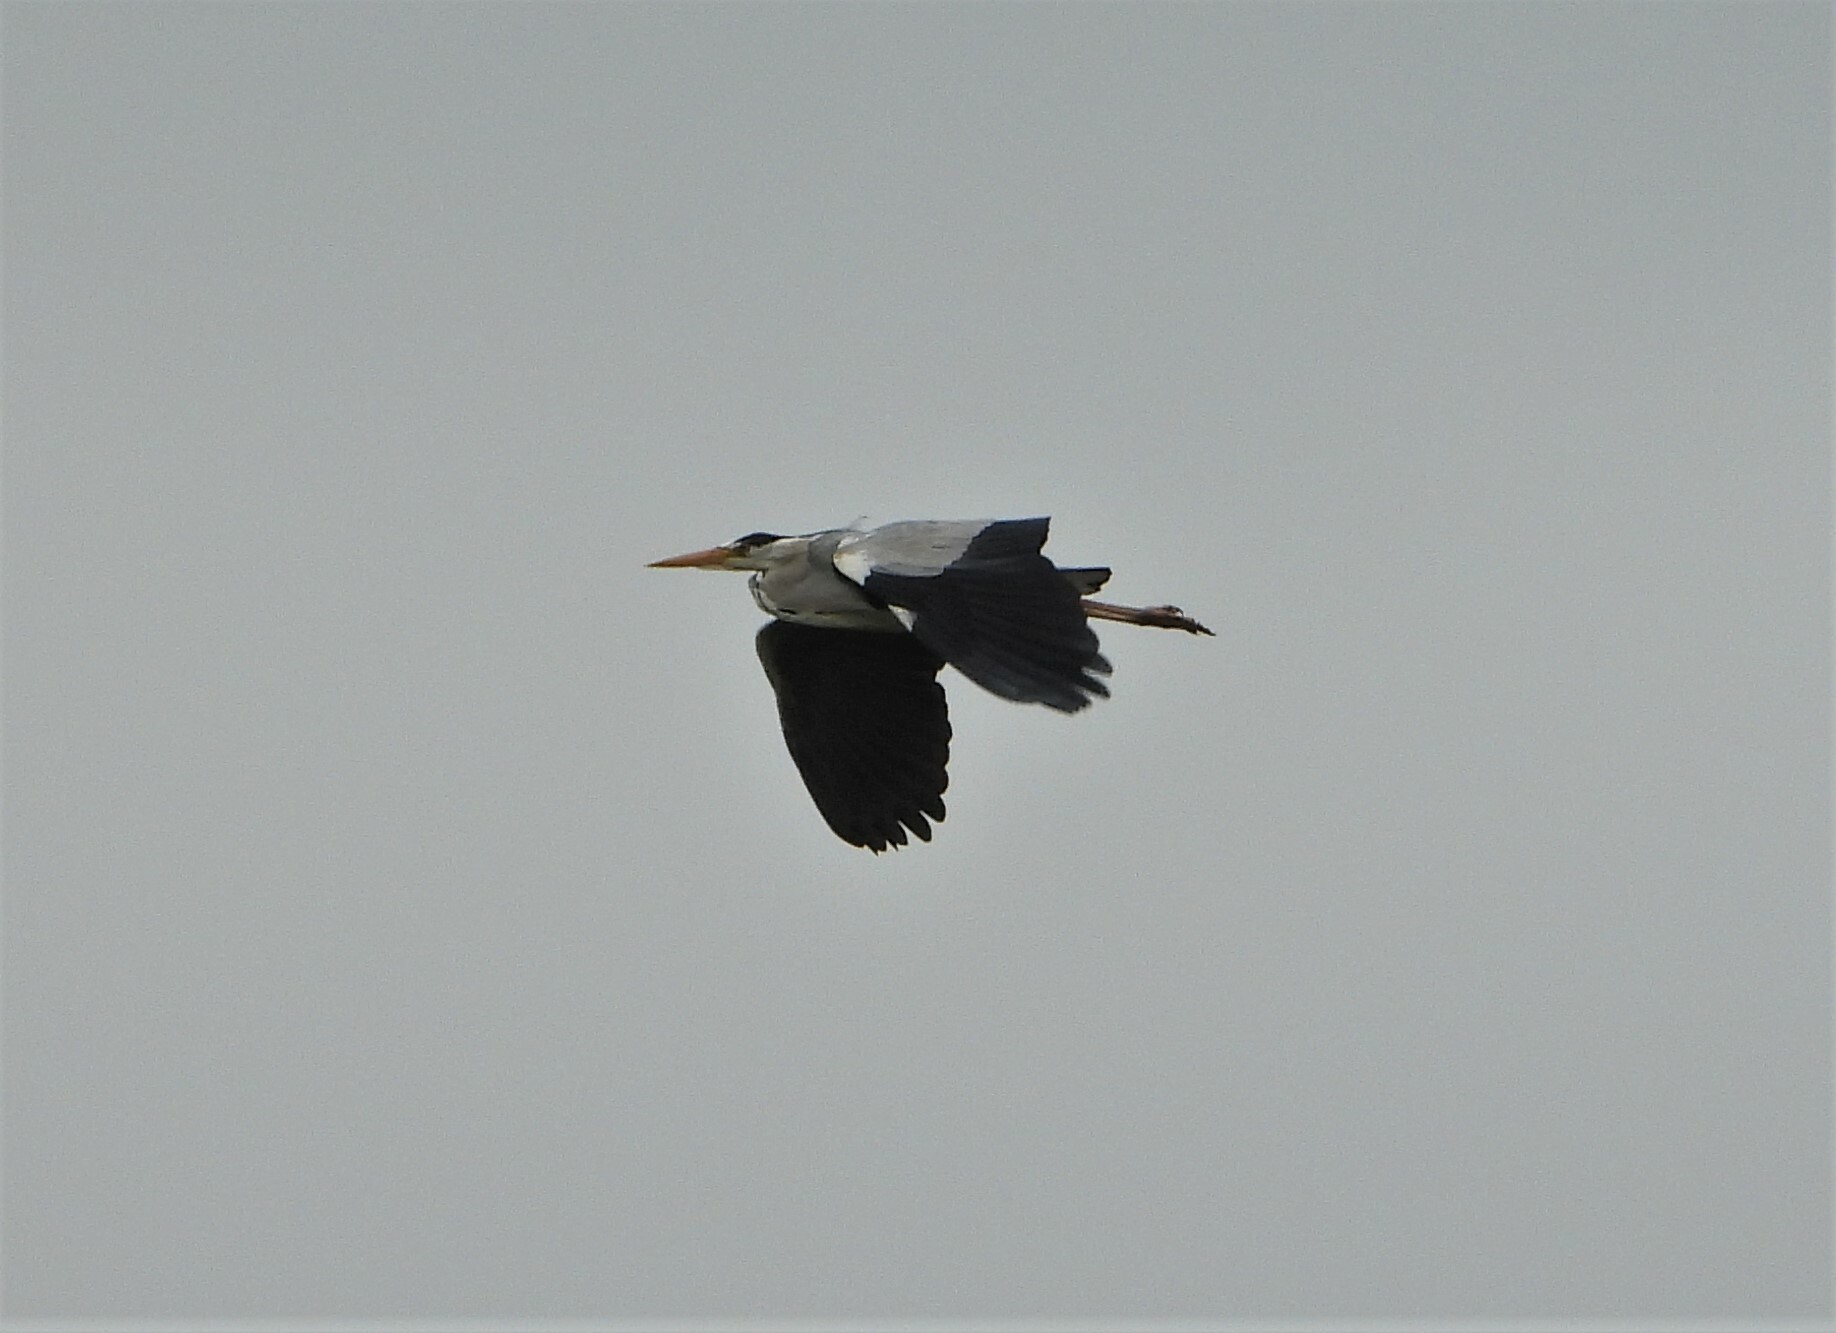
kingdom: Animalia
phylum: Chordata
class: Aves
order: Pelecaniformes
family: Ardeidae
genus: Ardea
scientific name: Ardea cinerea
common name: Grey heron
